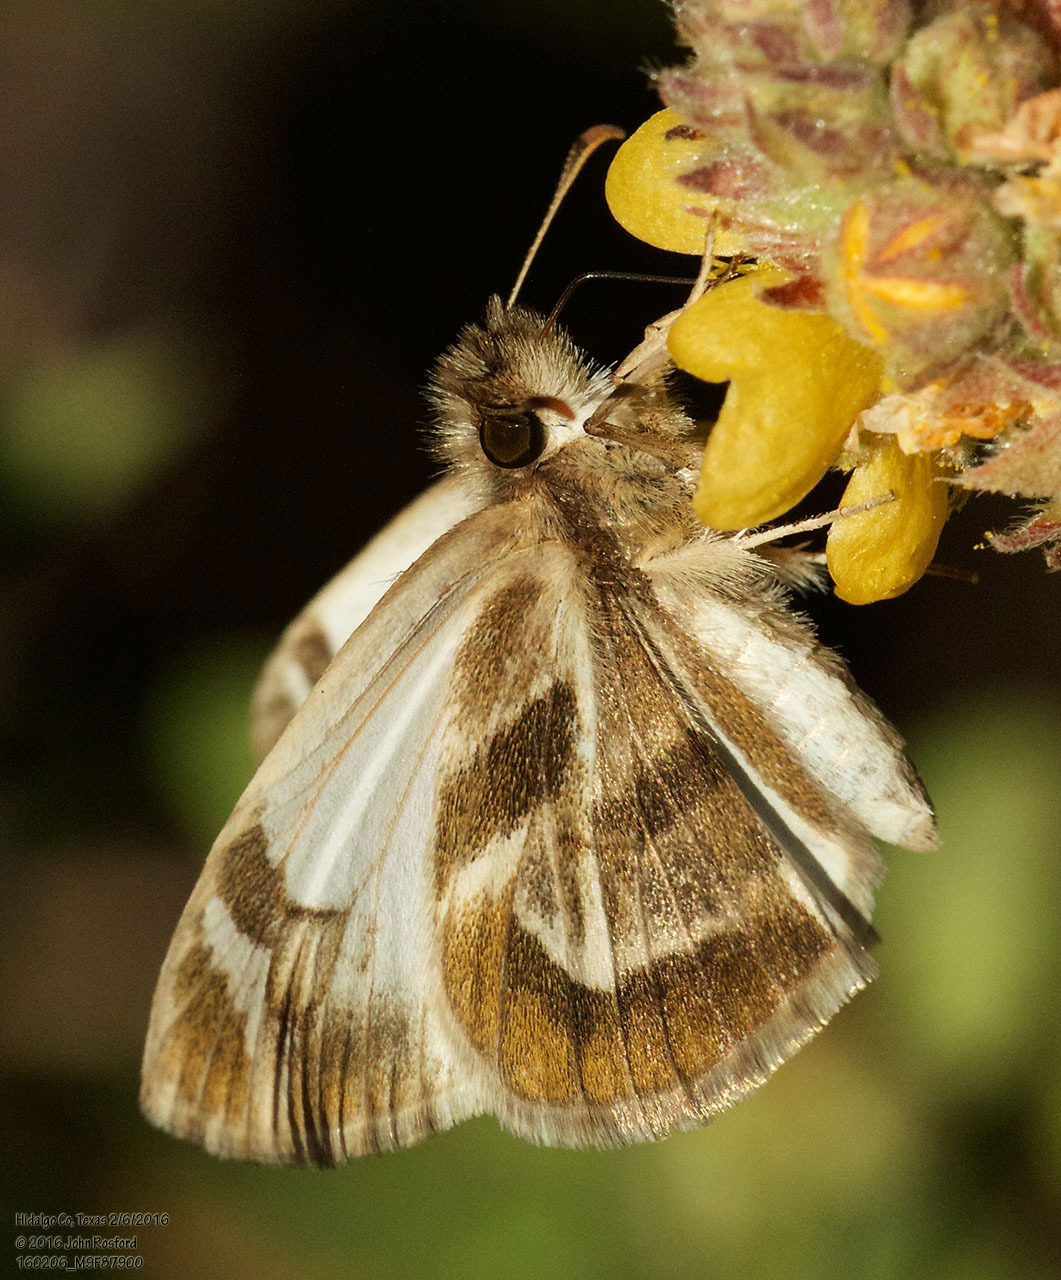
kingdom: Animalia
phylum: Arthropoda
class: Insecta
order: Lepidoptera
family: Hesperiidae
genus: Heliopetes
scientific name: Heliopetes macaira
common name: Turk's-cap white-skipper
